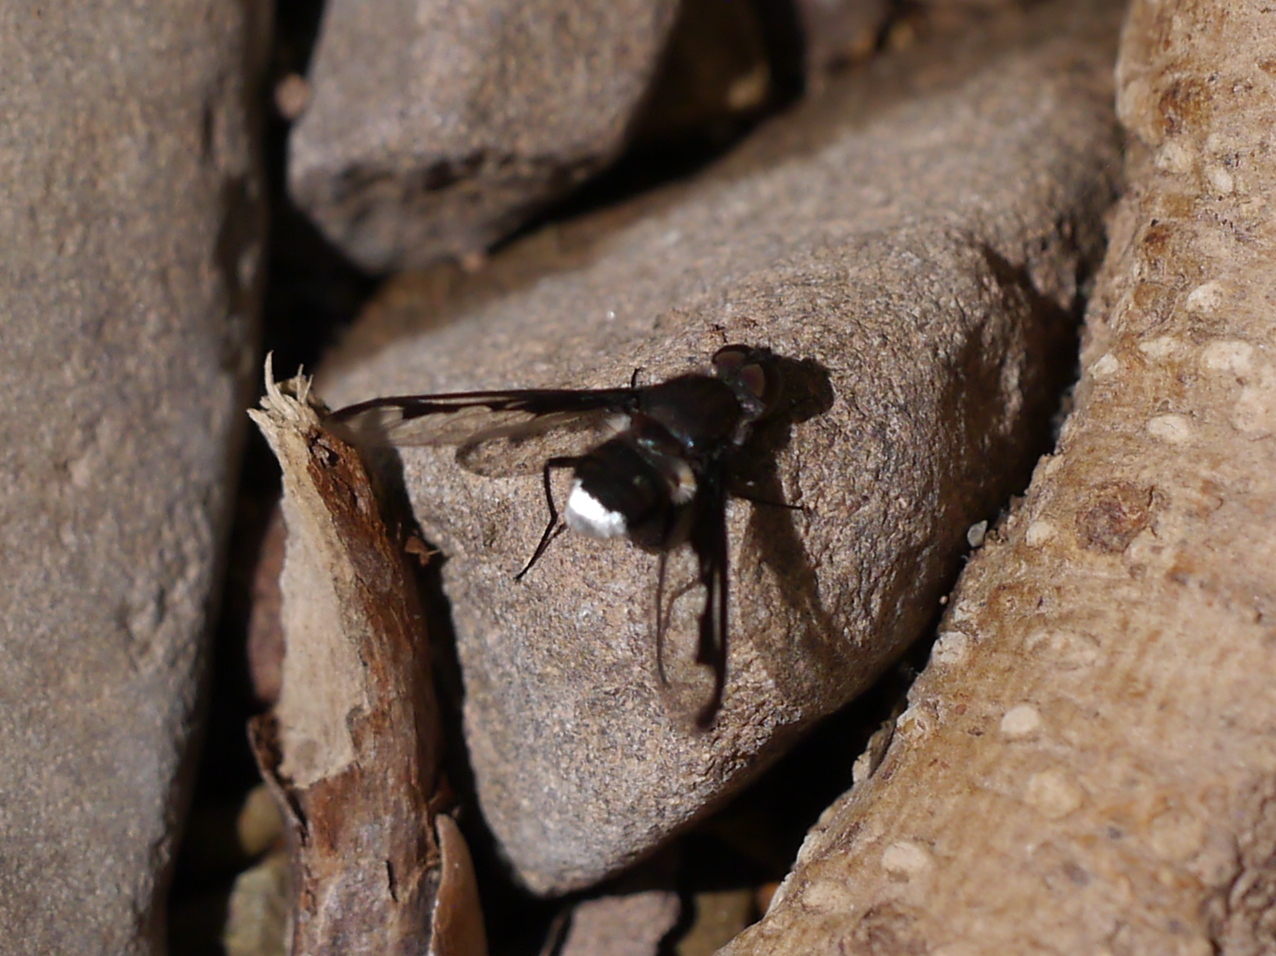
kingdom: Animalia
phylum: Arthropoda
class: Insecta
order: Diptera
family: Bombyliidae
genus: Anthrax
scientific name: Anthrax argyropygus
